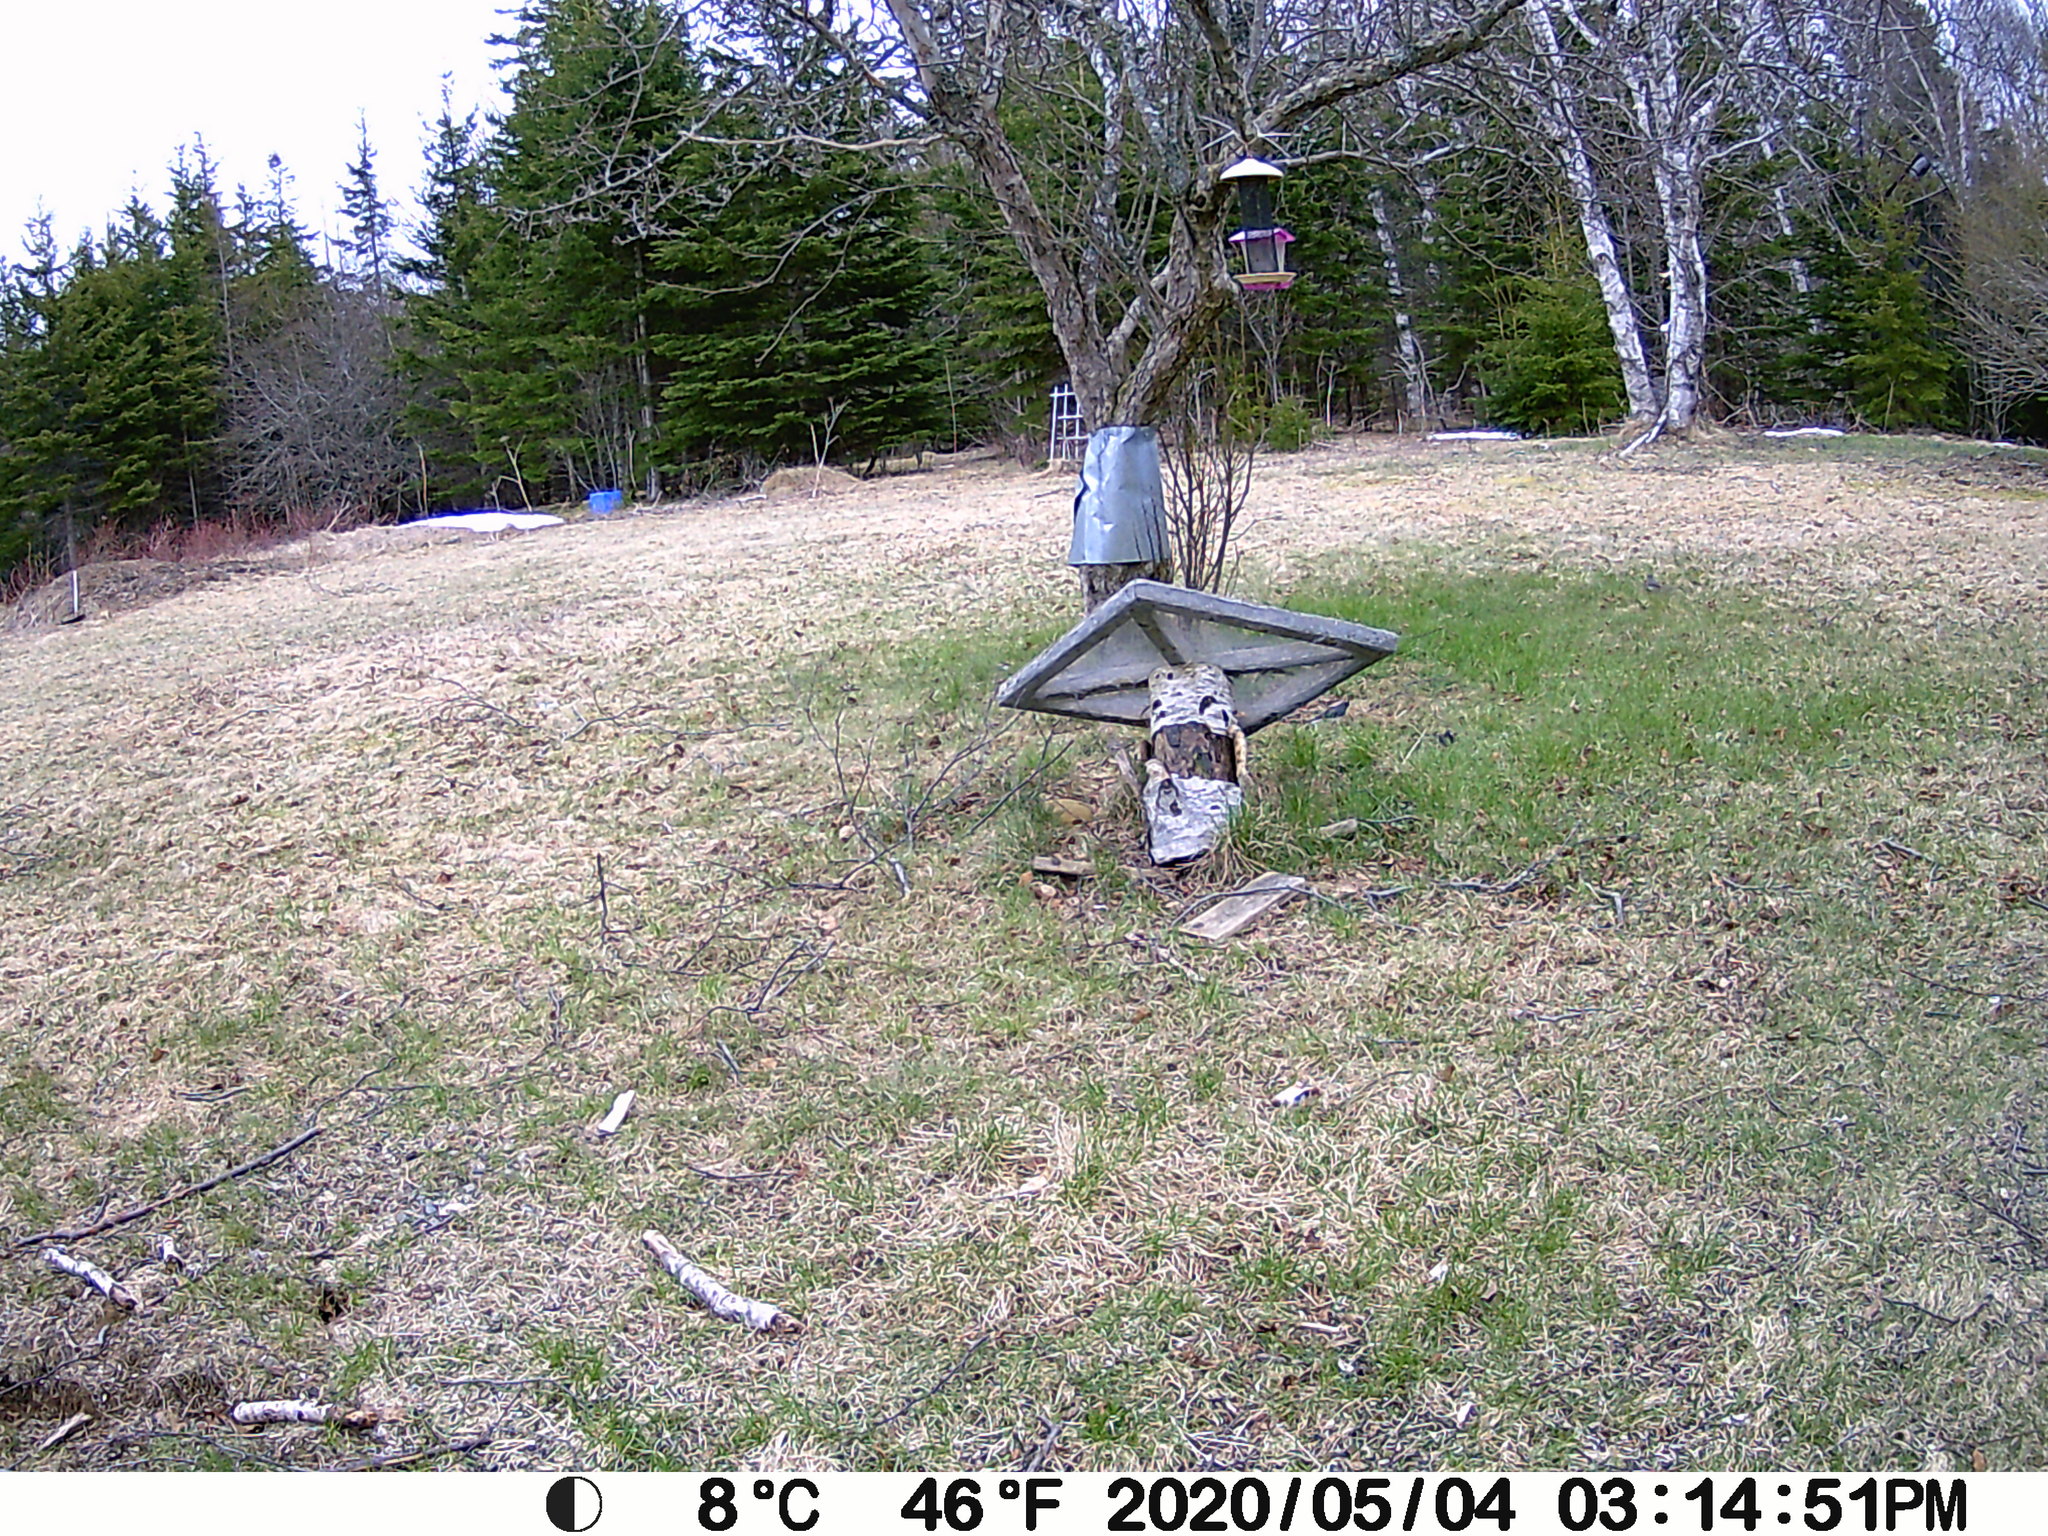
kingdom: Animalia
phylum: Chordata
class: Aves
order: Passeriformes
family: Passerellidae
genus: Junco
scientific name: Junco hyemalis
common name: Dark-eyed junco
